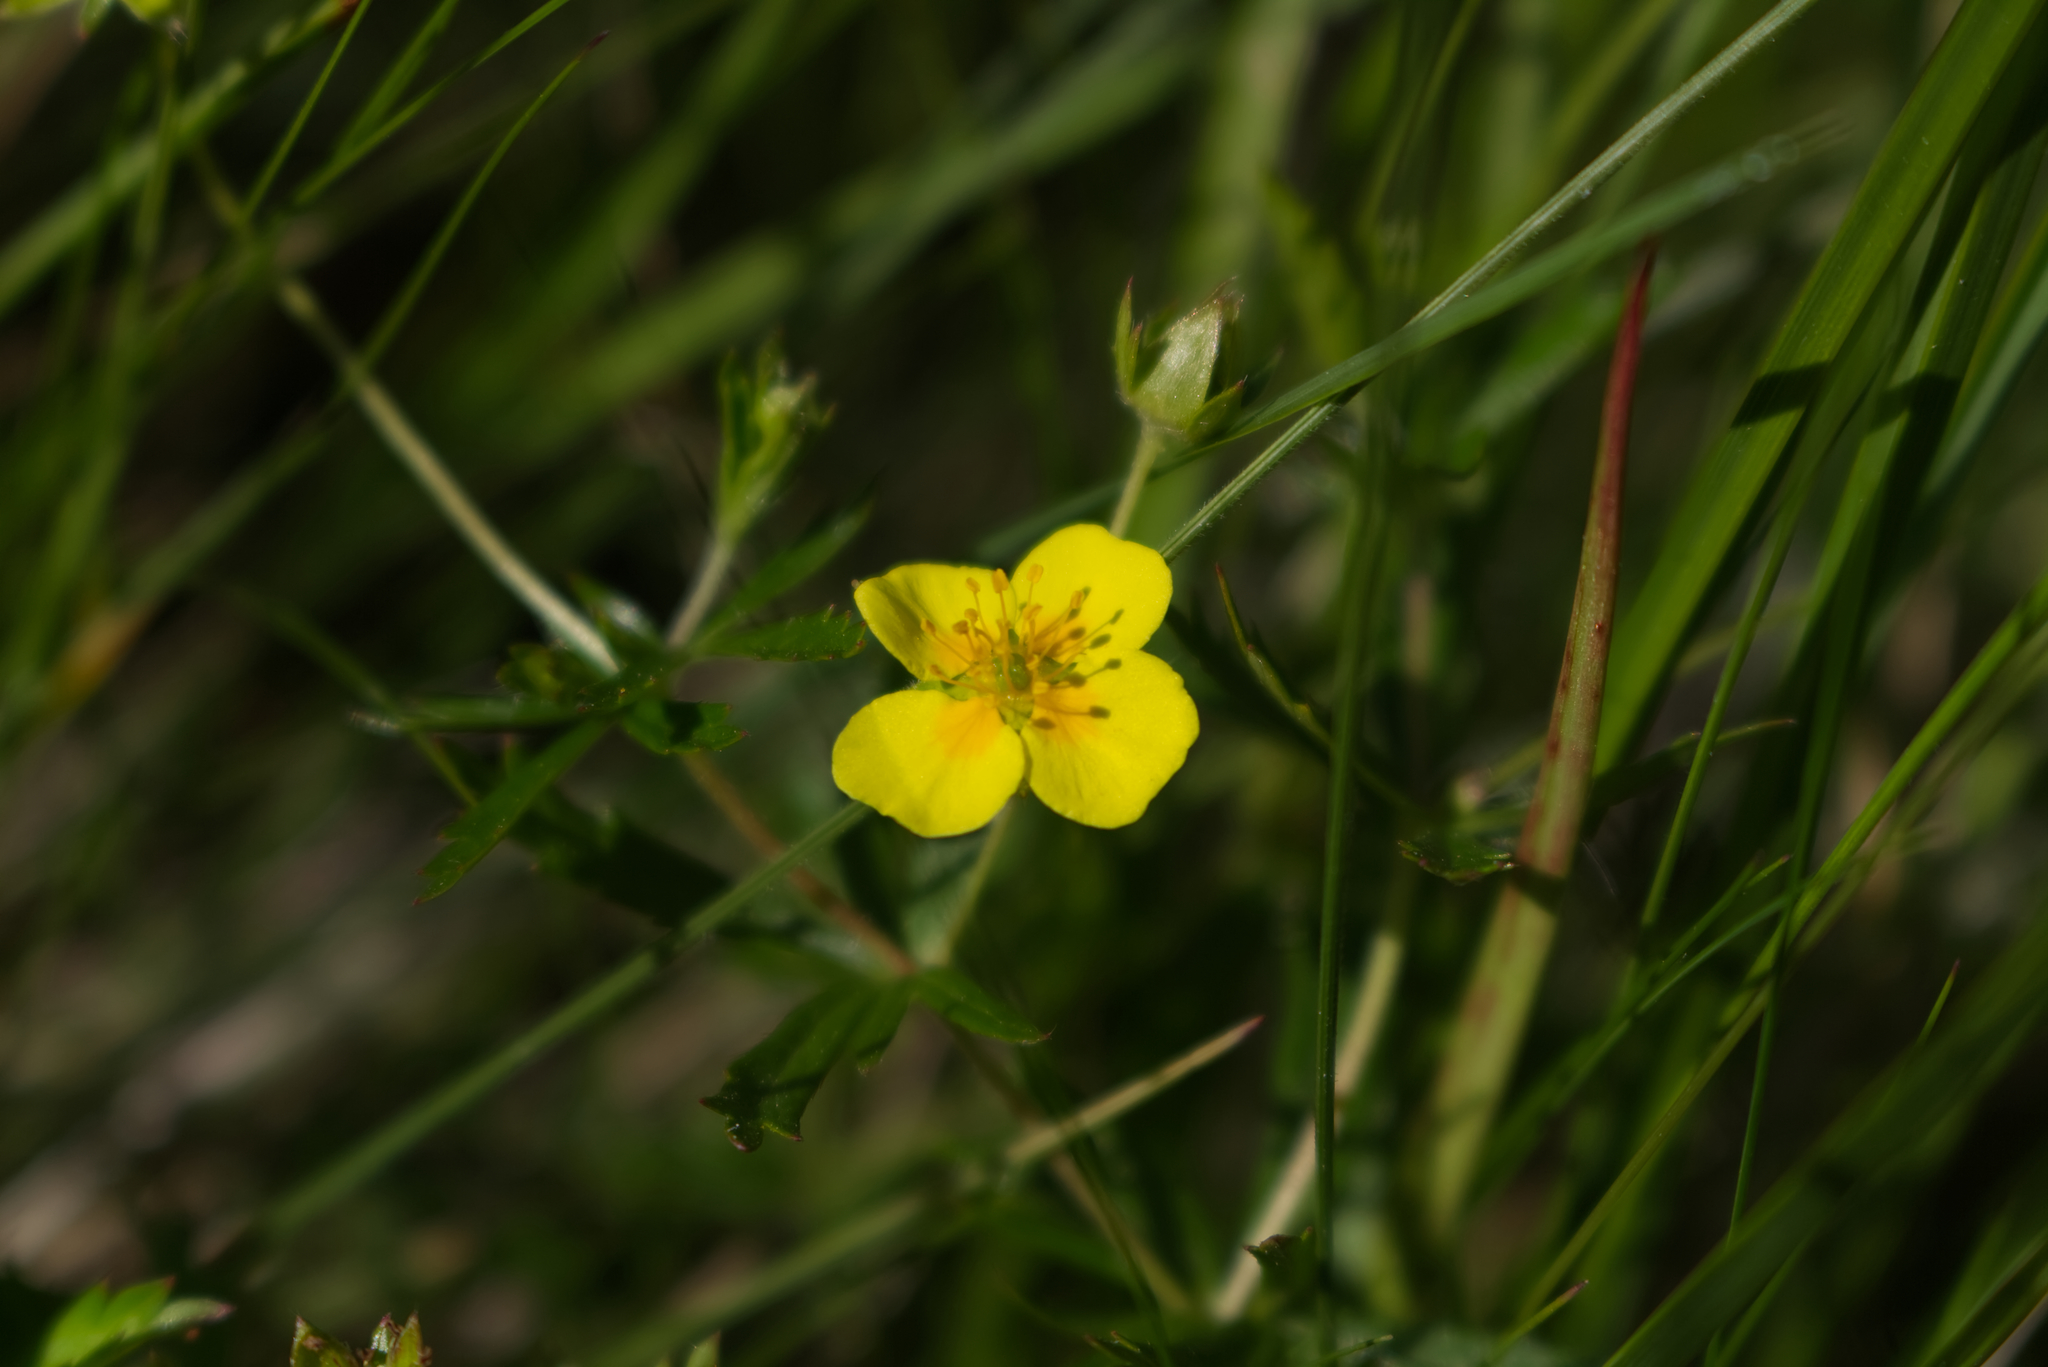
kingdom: Plantae
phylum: Tracheophyta
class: Magnoliopsida
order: Rosales
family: Rosaceae
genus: Potentilla
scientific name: Potentilla erecta
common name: Tormentil
